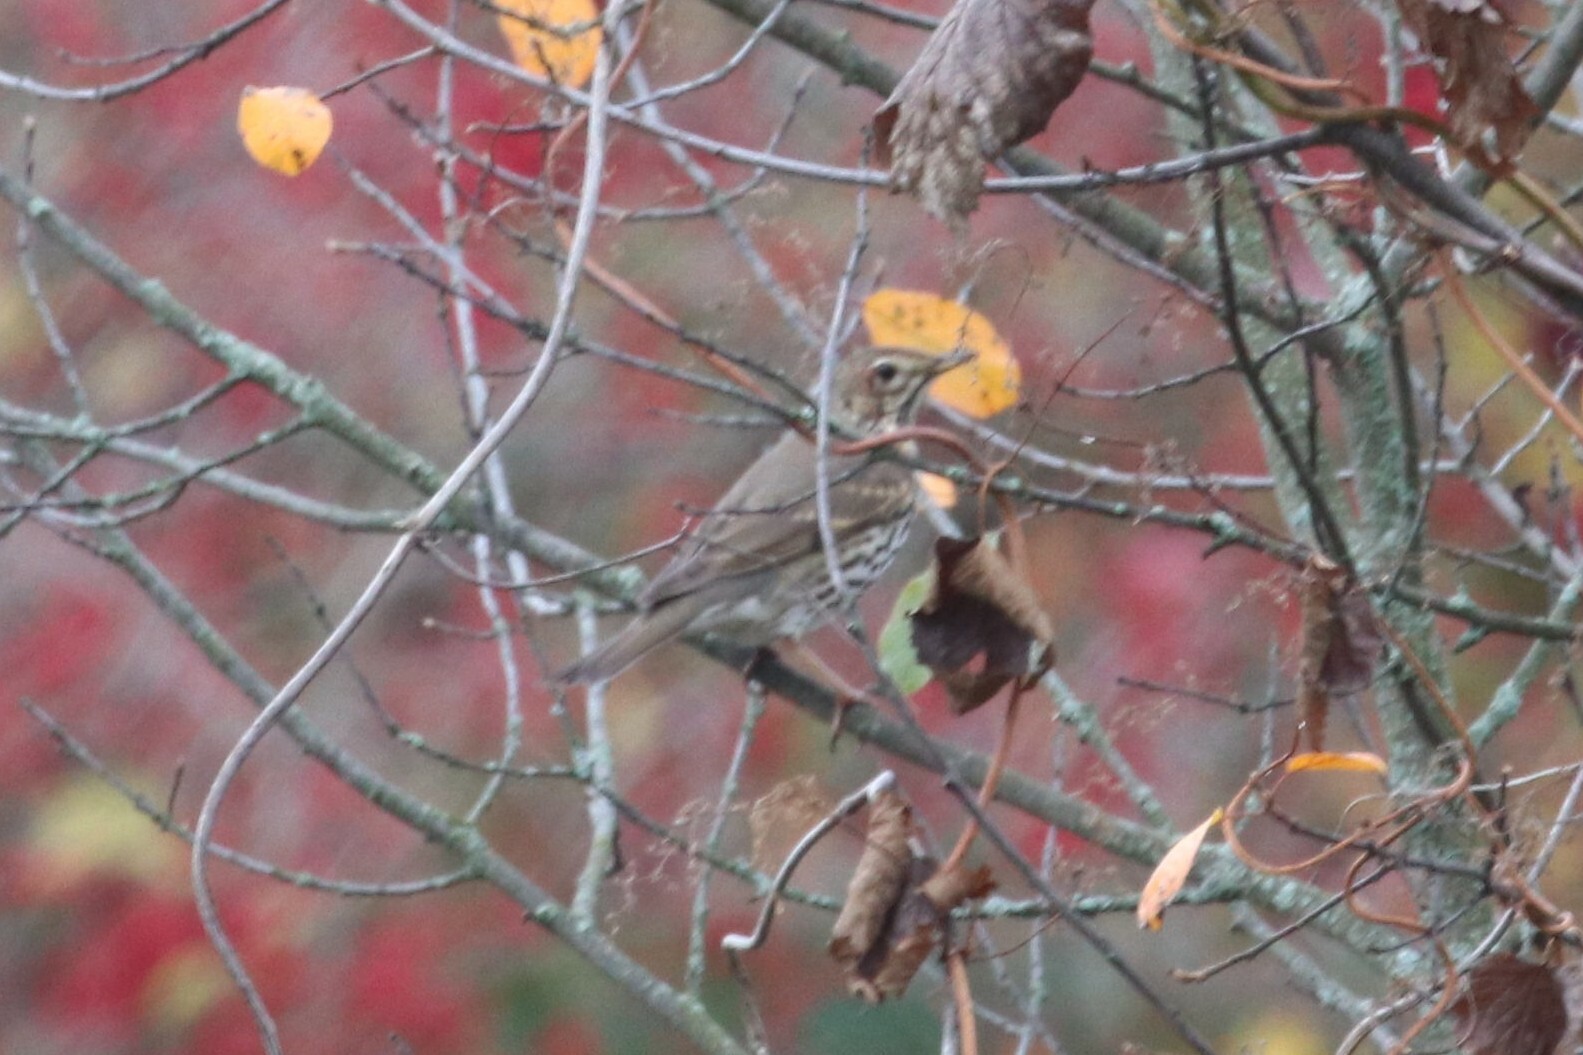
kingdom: Animalia
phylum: Chordata
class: Aves
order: Passeriformes
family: Turdidae
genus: Turdus
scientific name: Turdus philomelos
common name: Song thrush
